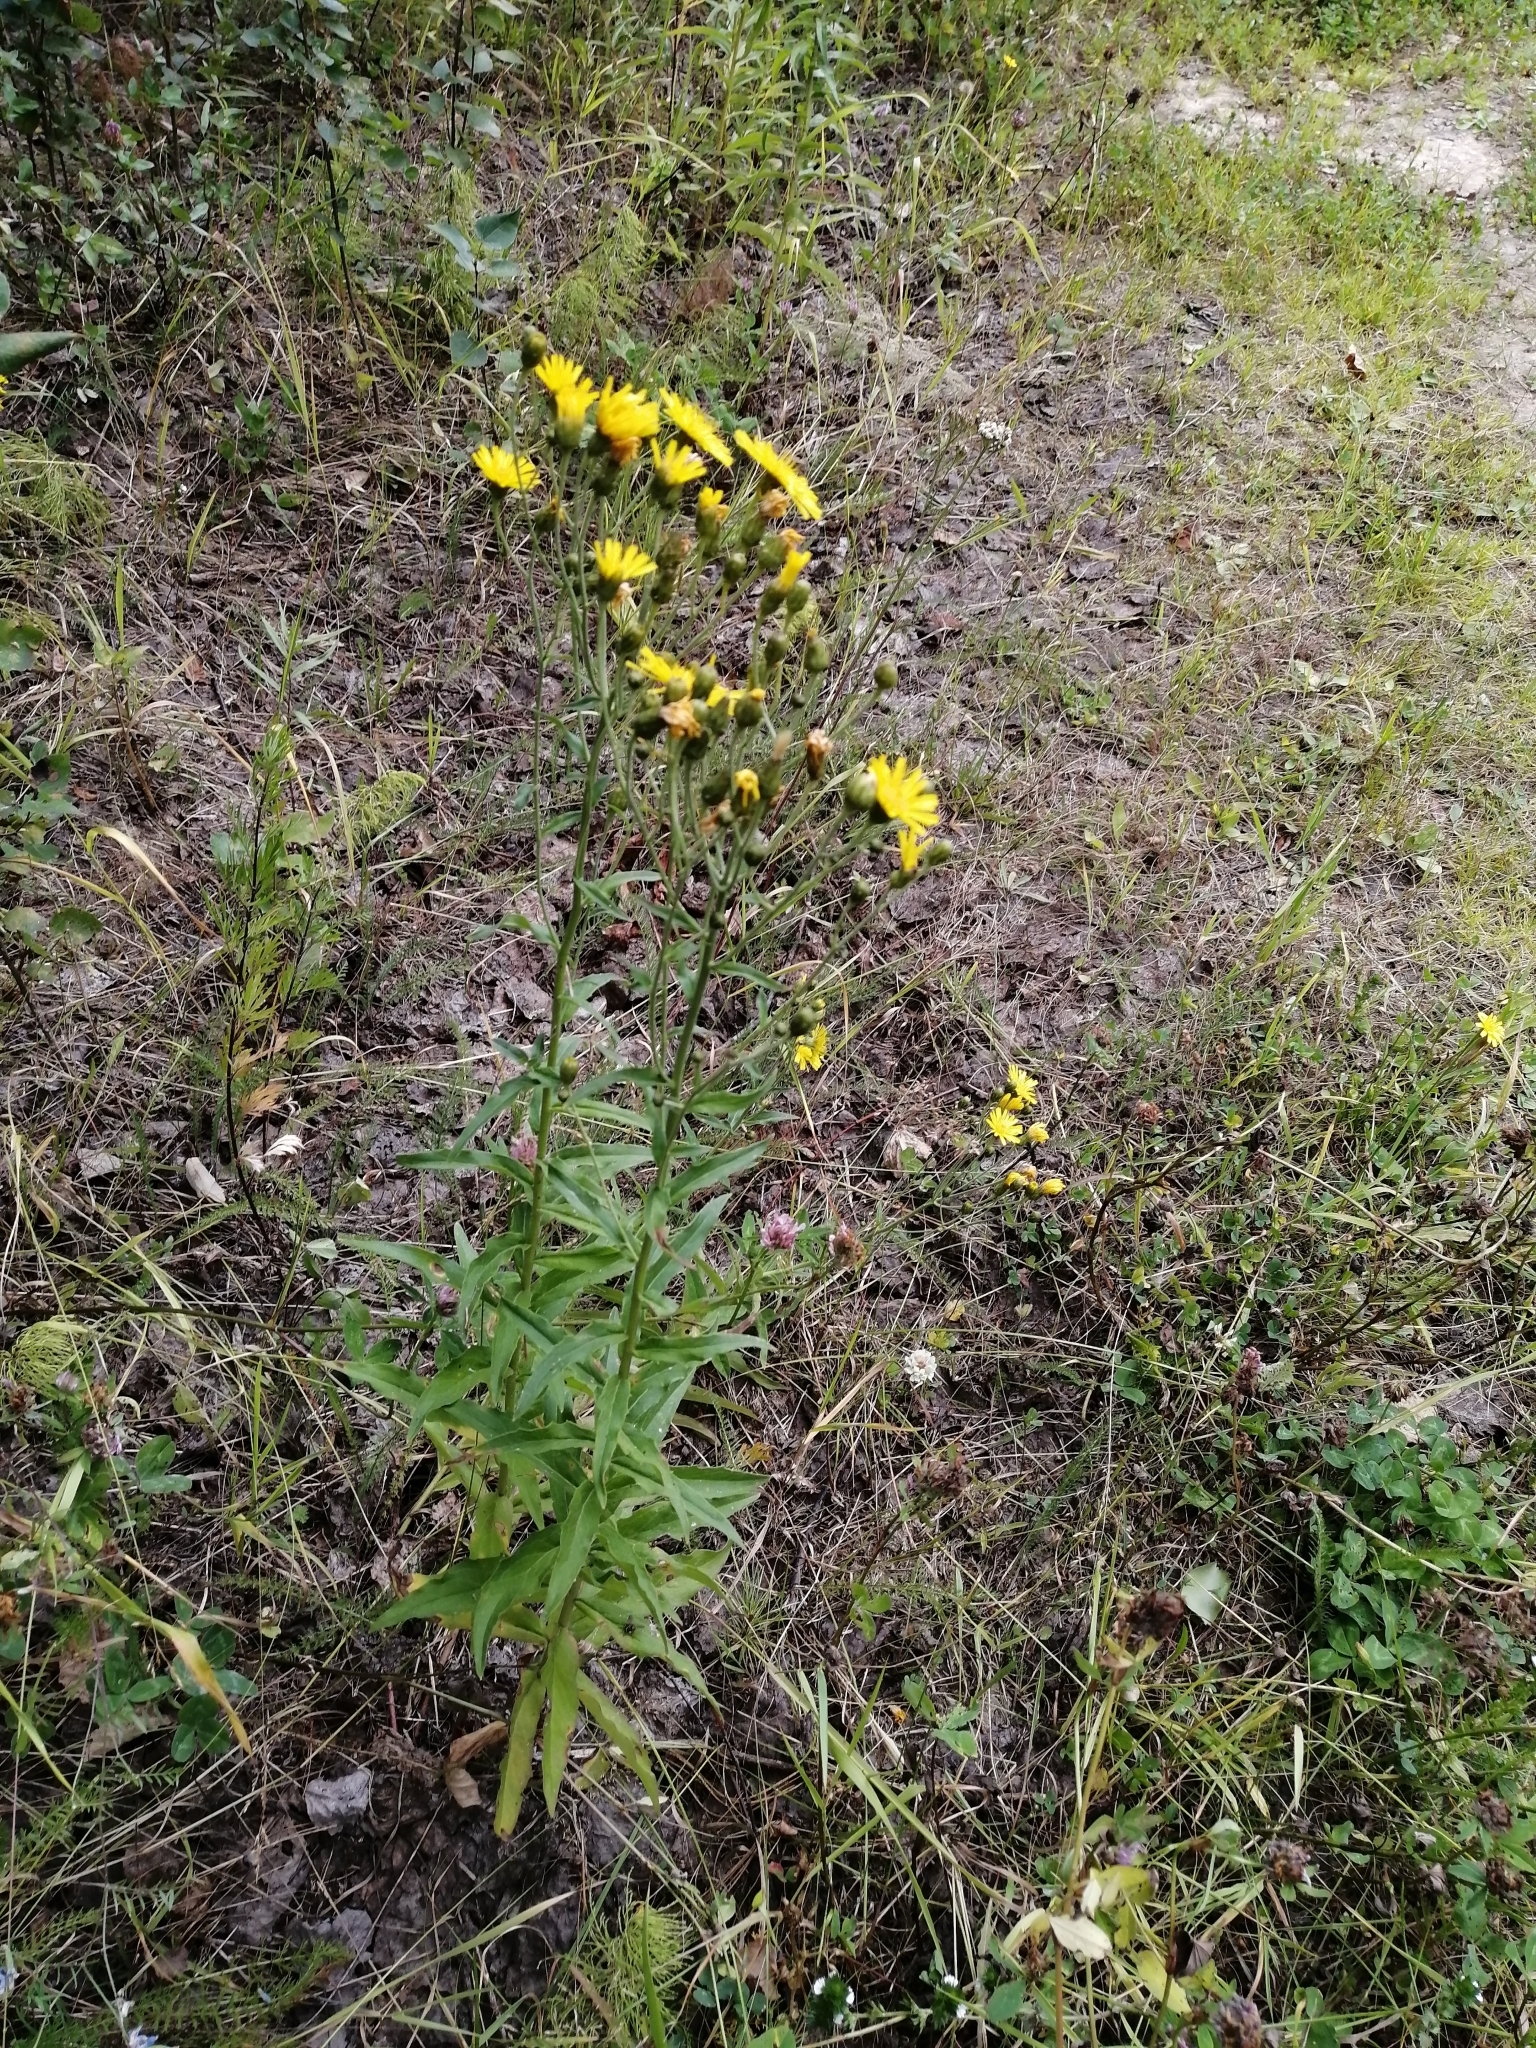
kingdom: Plantae
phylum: Tracheophyta
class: Magnoliopsida
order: Asterales
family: Asteraceae
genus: Hieracium
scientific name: Hieracium umbellatum
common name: Northern hawkweed
